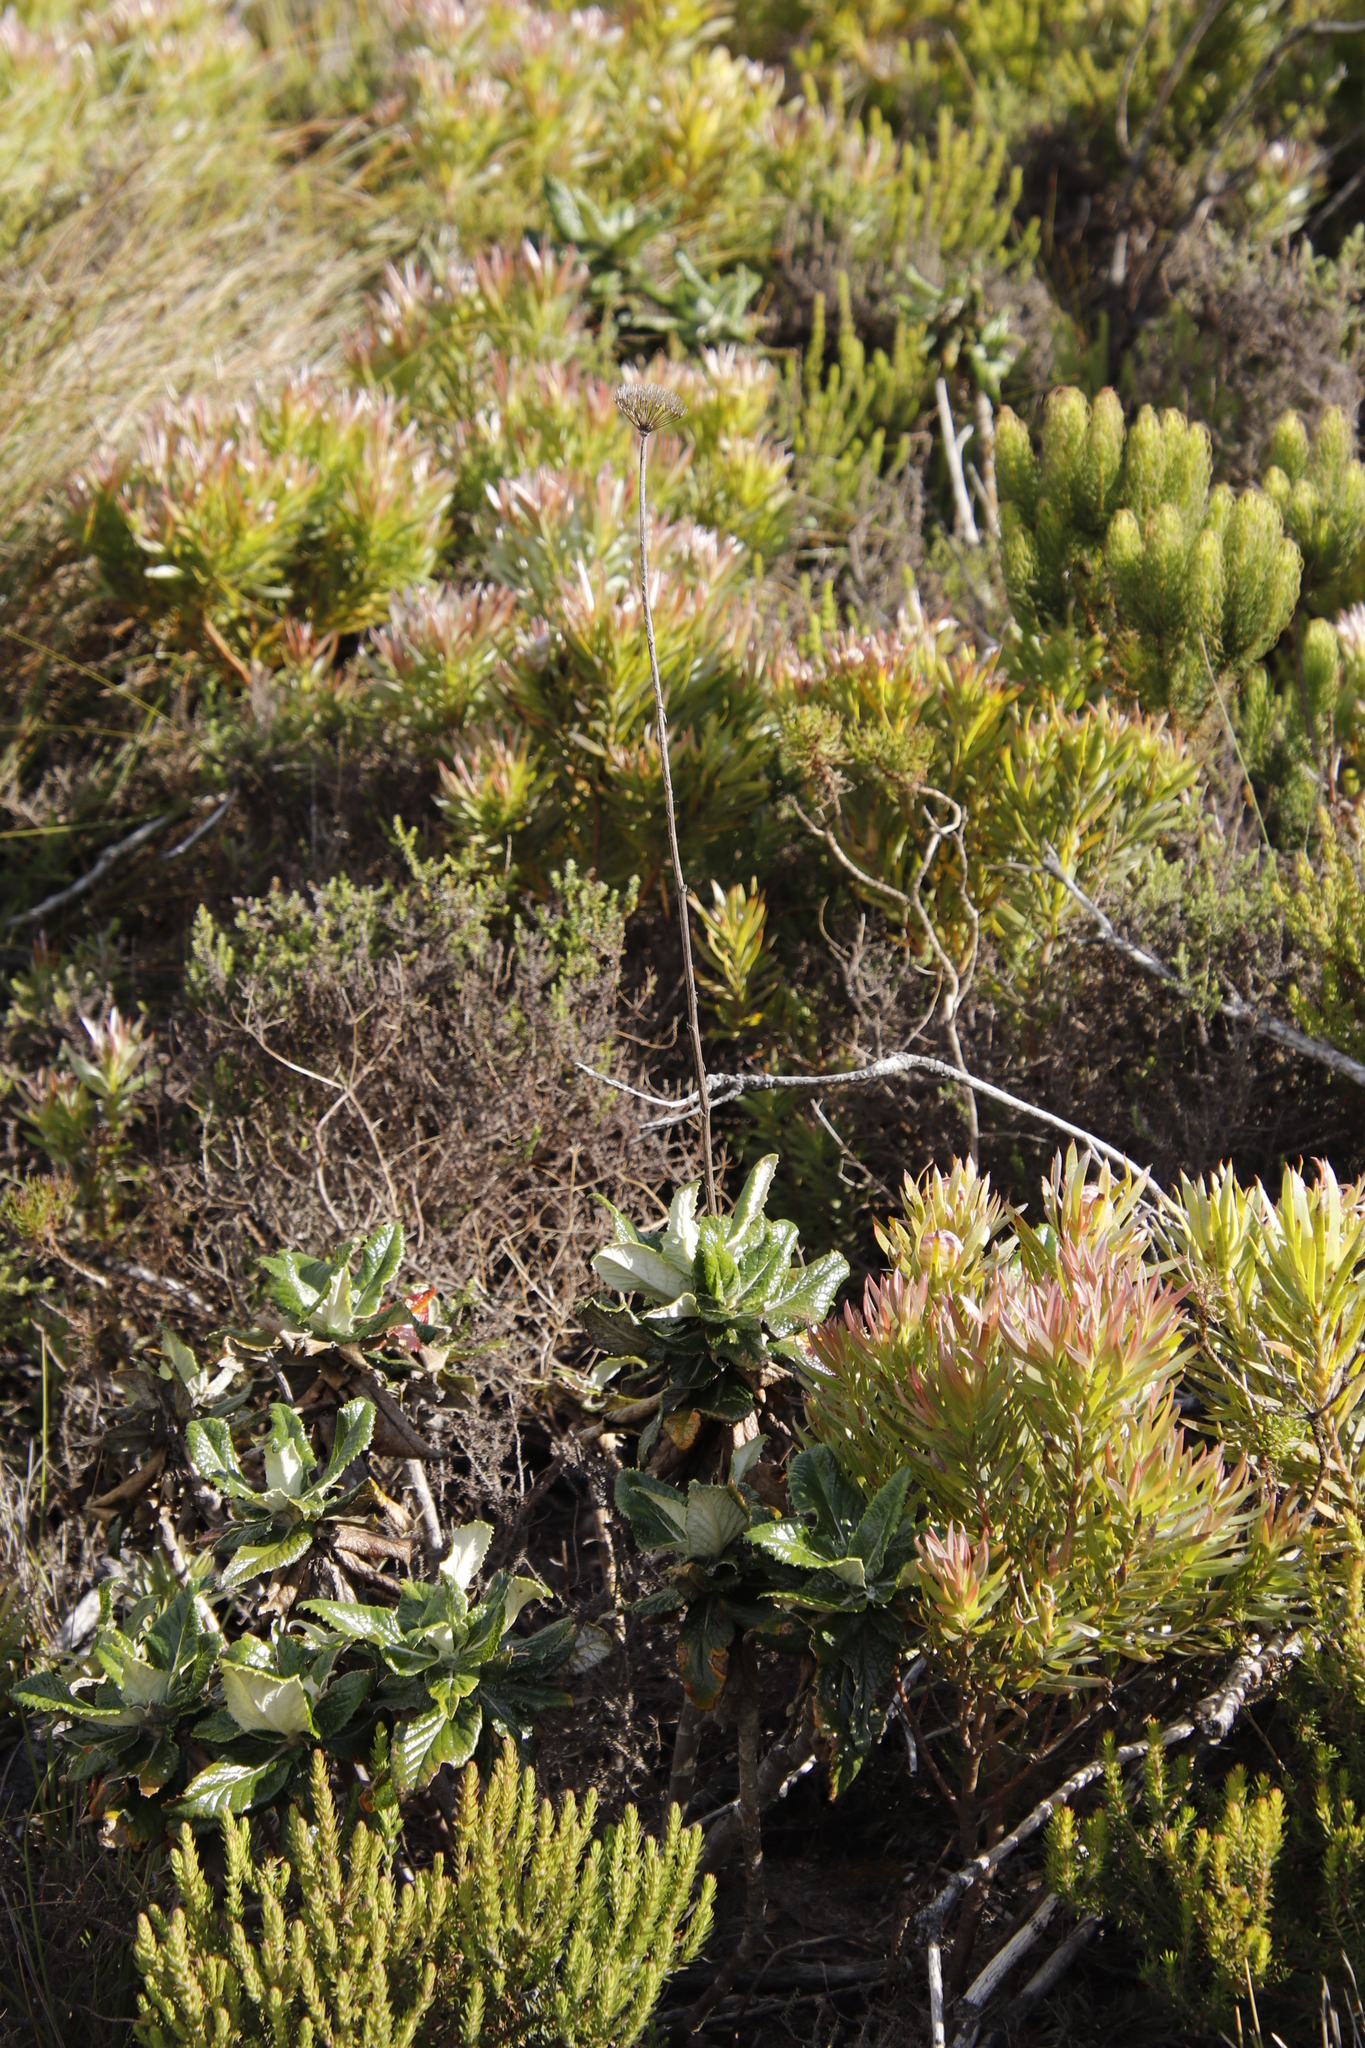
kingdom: Plantae
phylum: Tracheophyta
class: Magnoliopsida
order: Apiales
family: Apiaceae
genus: Hermas
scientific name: Hermas villosa
